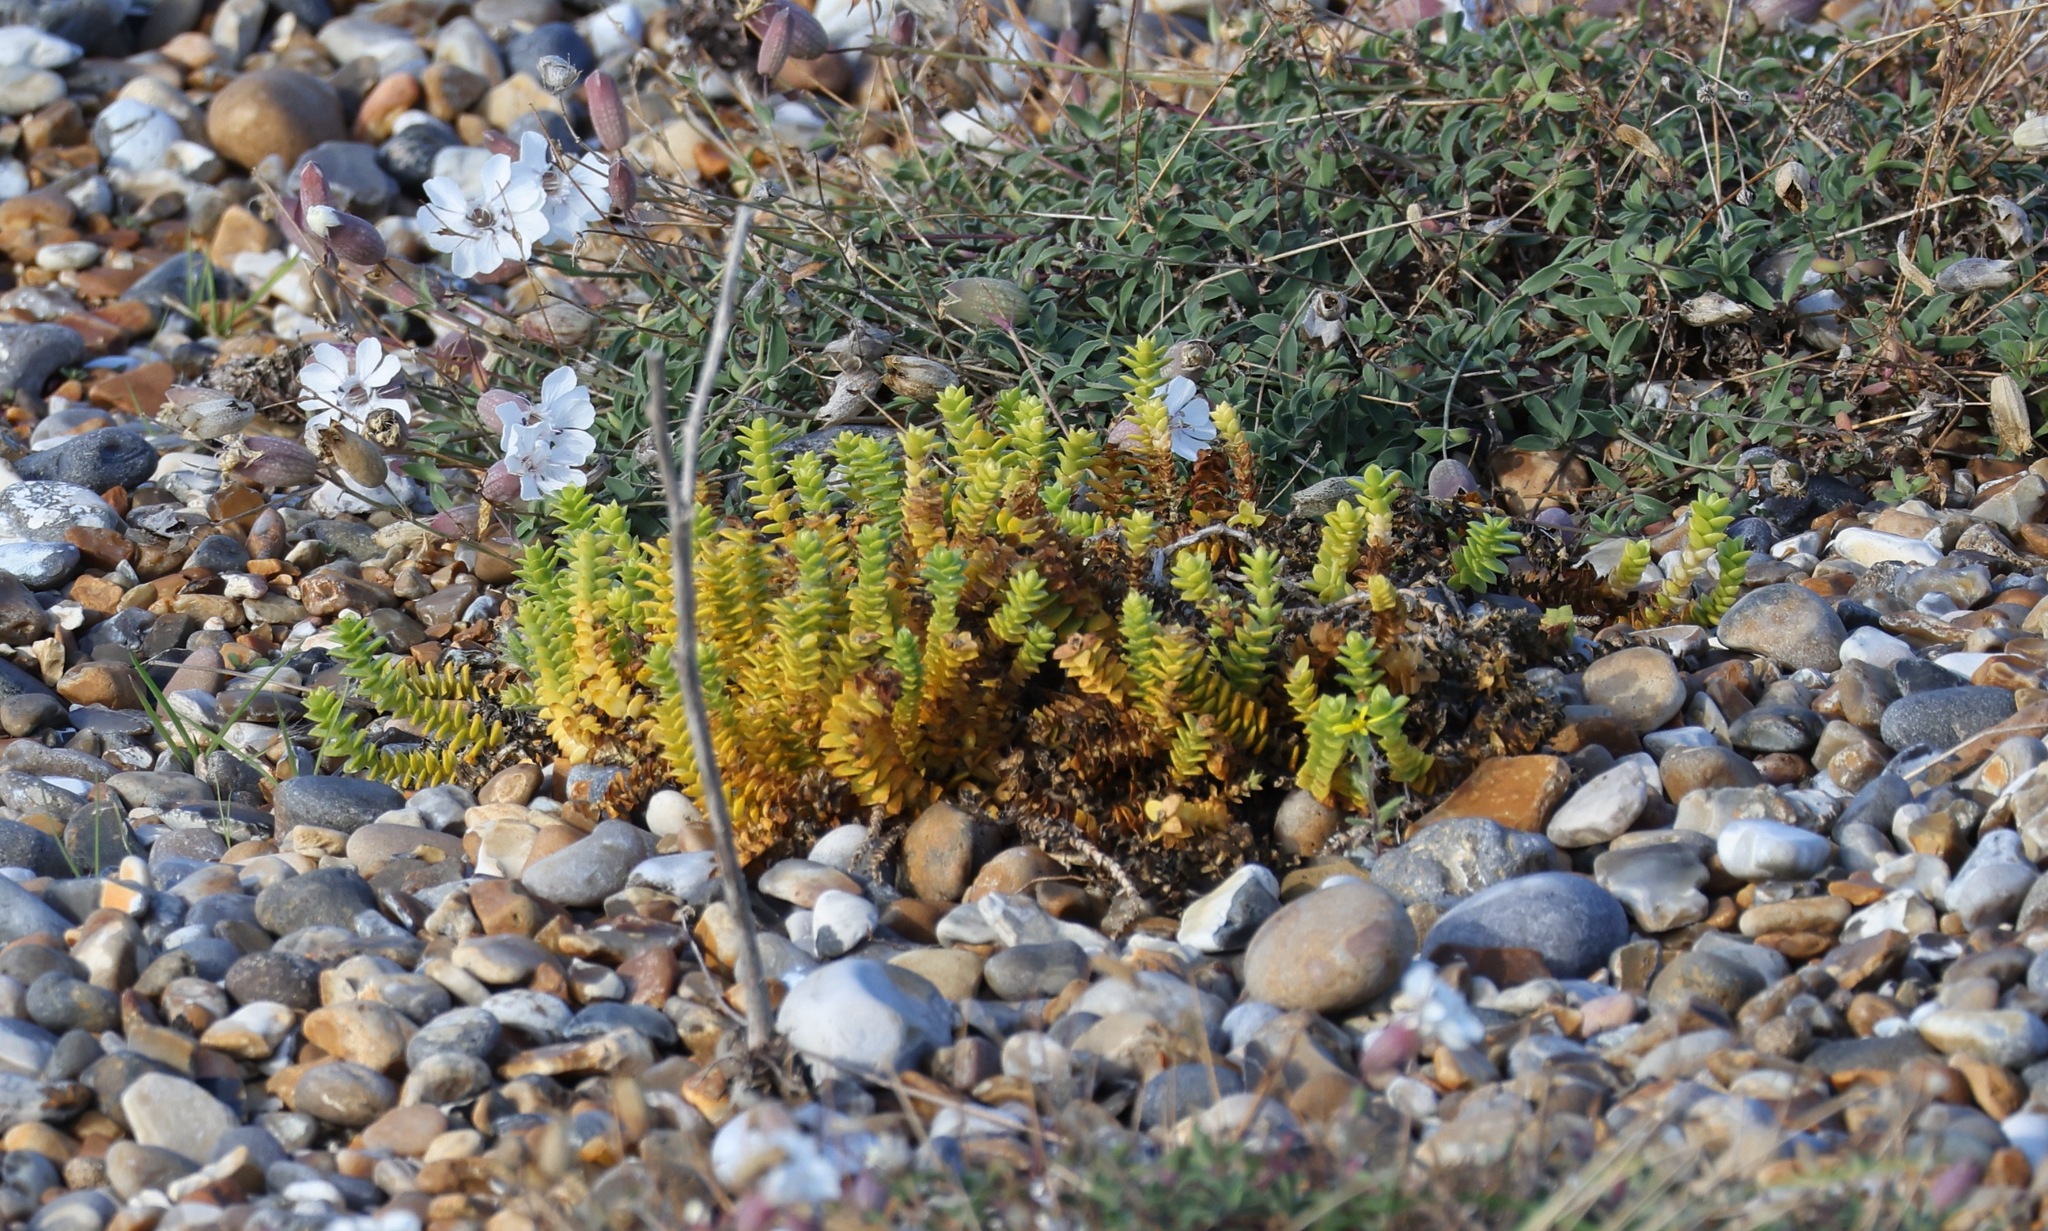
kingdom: Plantae
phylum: Tracheophyta
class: Magnoliopsida
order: Caryophyllales
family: Caryophyllaceae
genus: Honckenya
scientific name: Honckenya peploides
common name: Sea sandwort
